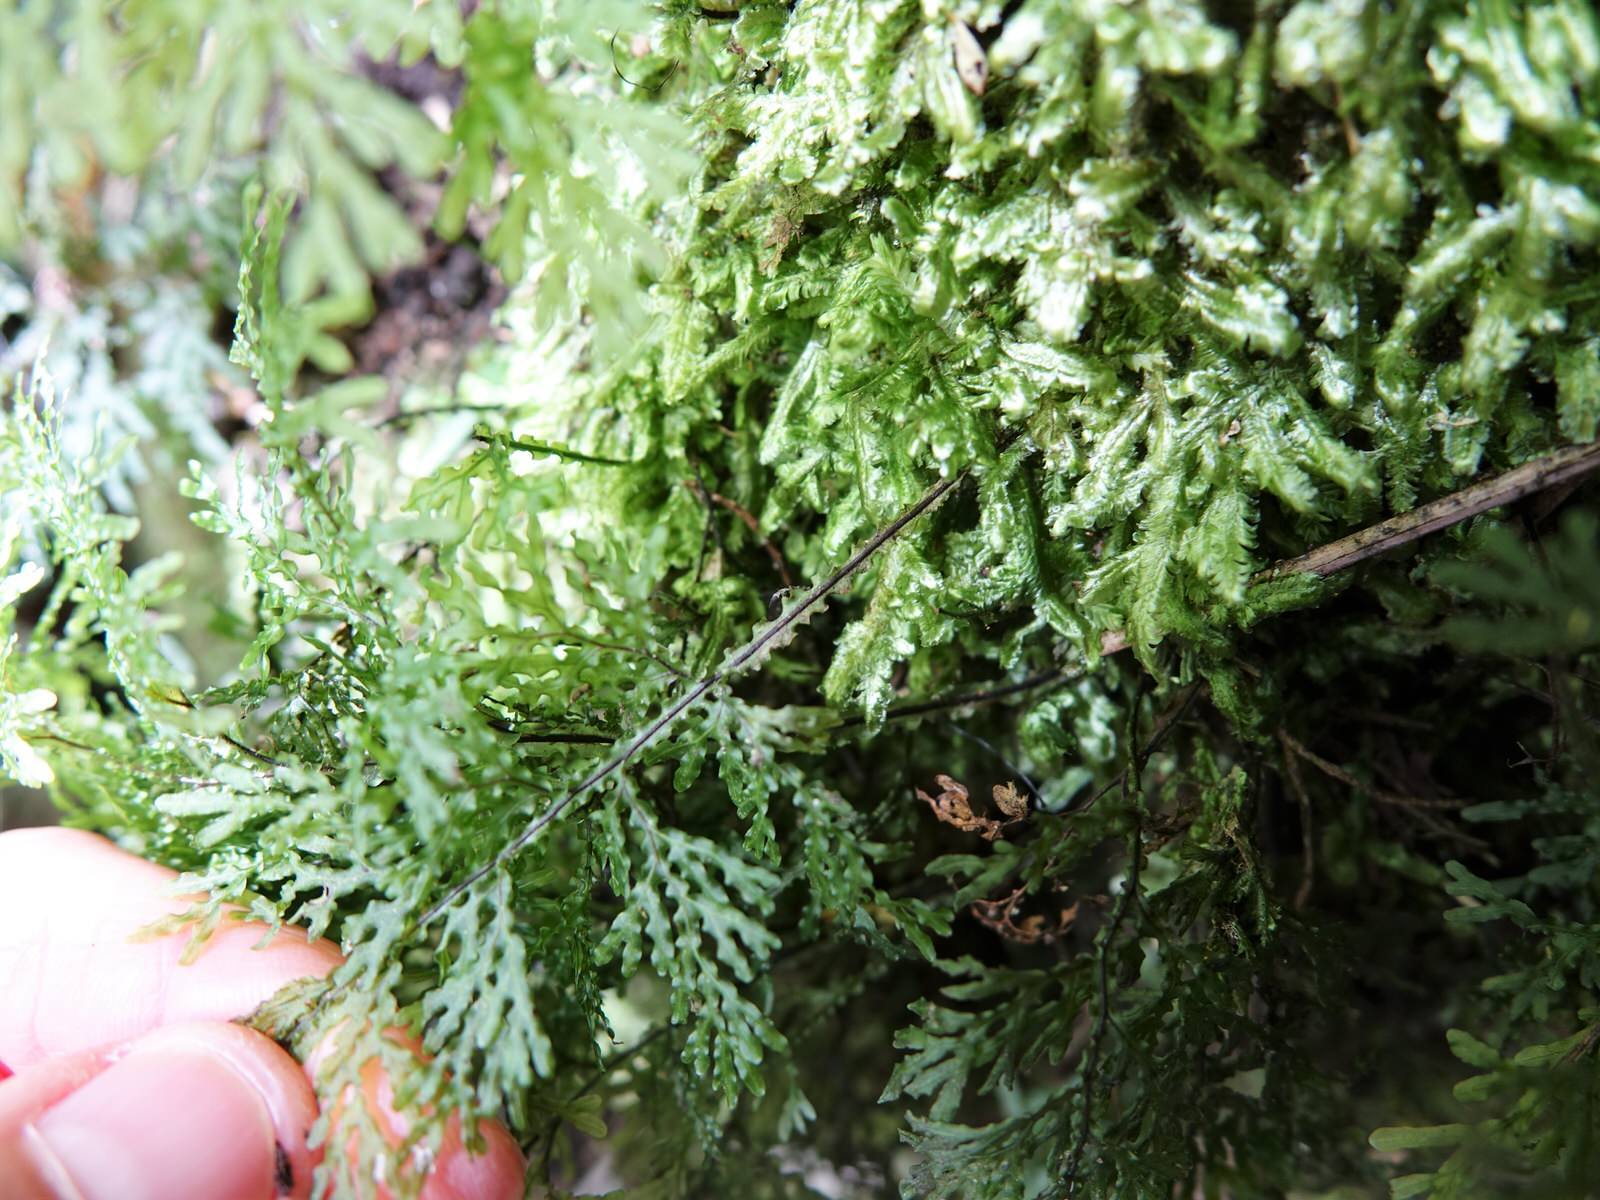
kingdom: Plantae
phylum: Tracheophyta
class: Polypodiopsida
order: Hymenophyllales
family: Hymenophyllaceae
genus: Hymenophyllum
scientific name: Hymenophyllum flexuosum
